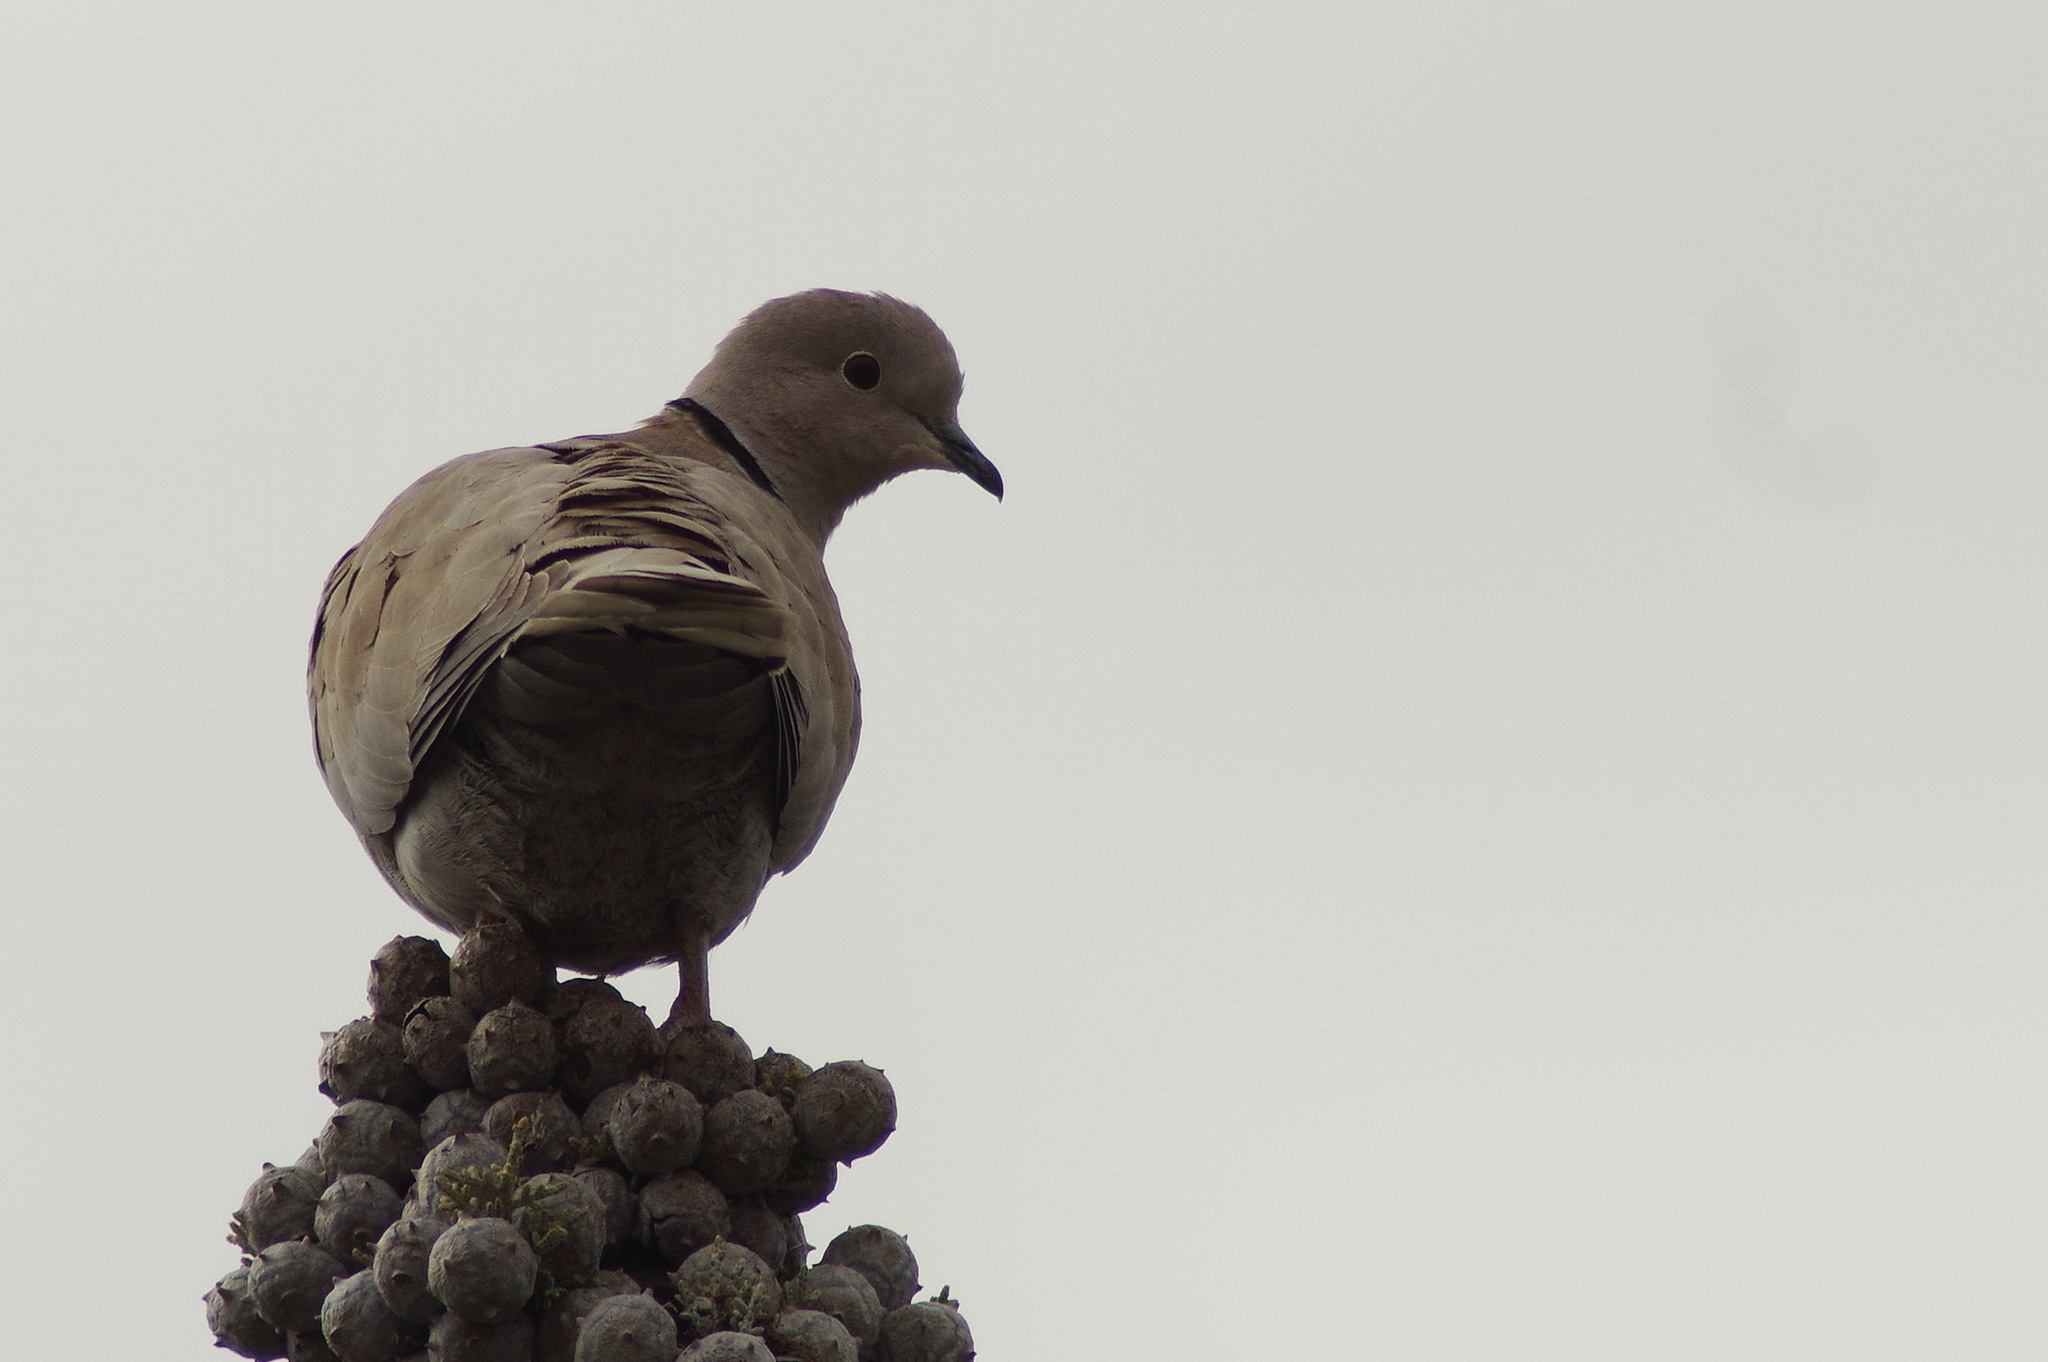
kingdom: Animalia
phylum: Chordata
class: Aves
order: Columbiformes
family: Columbidae
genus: Streptopelia
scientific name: Streptopelia decaocto
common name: Eurasian collared dove
